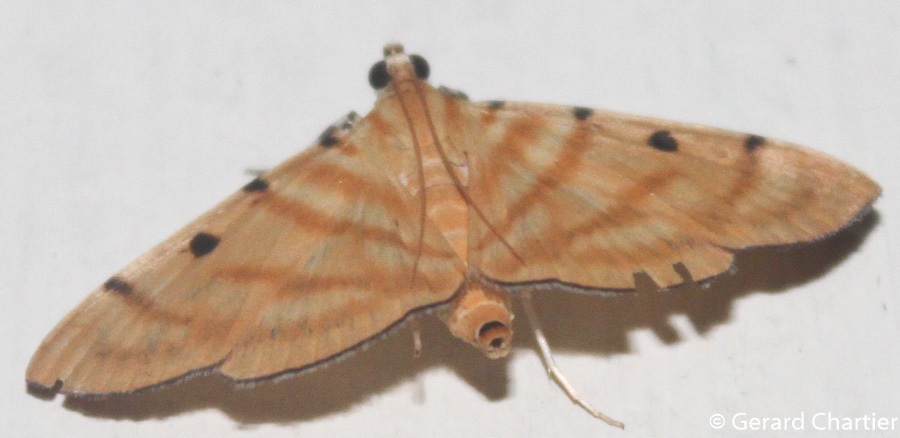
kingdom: Animalia
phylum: Arthropoda
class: Insecta
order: Lepidoptera
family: Crambidae
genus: Orthospila
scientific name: Orthospila orissusalis
